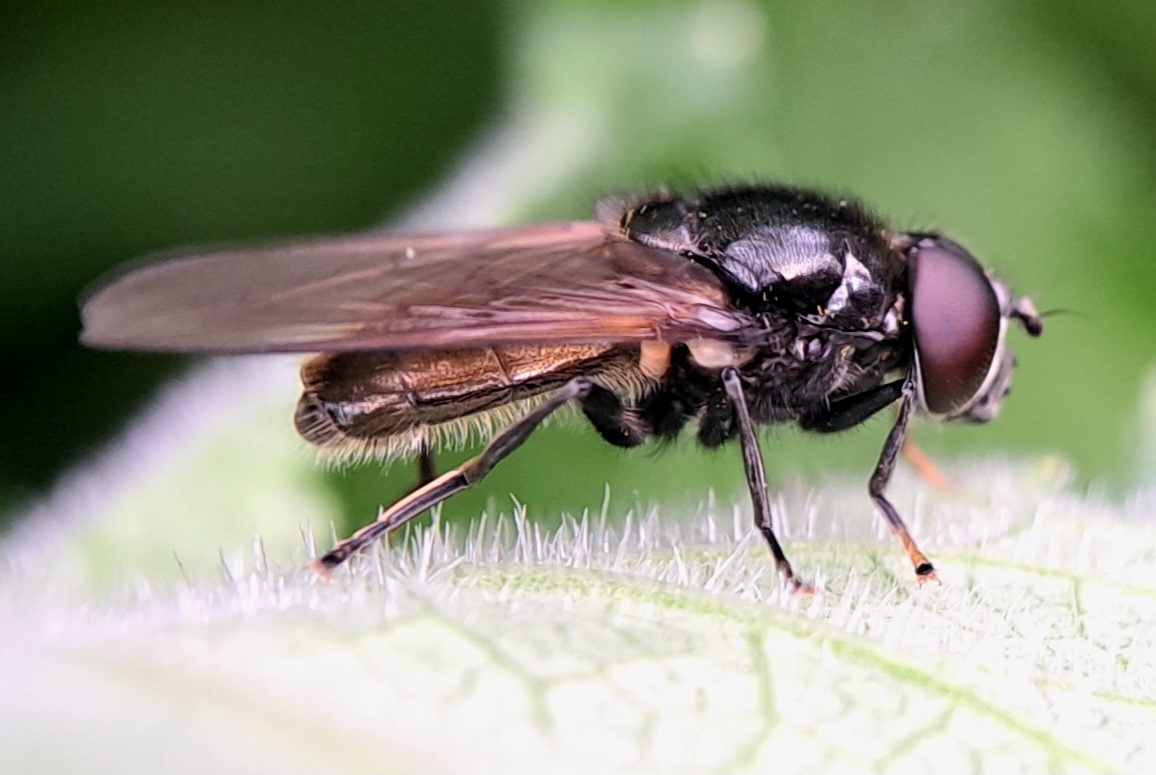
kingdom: Animalia
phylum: Arthropoda
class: Insecta
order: Diptera
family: Syrphidae
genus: Cheilosia
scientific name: Cheilosia
